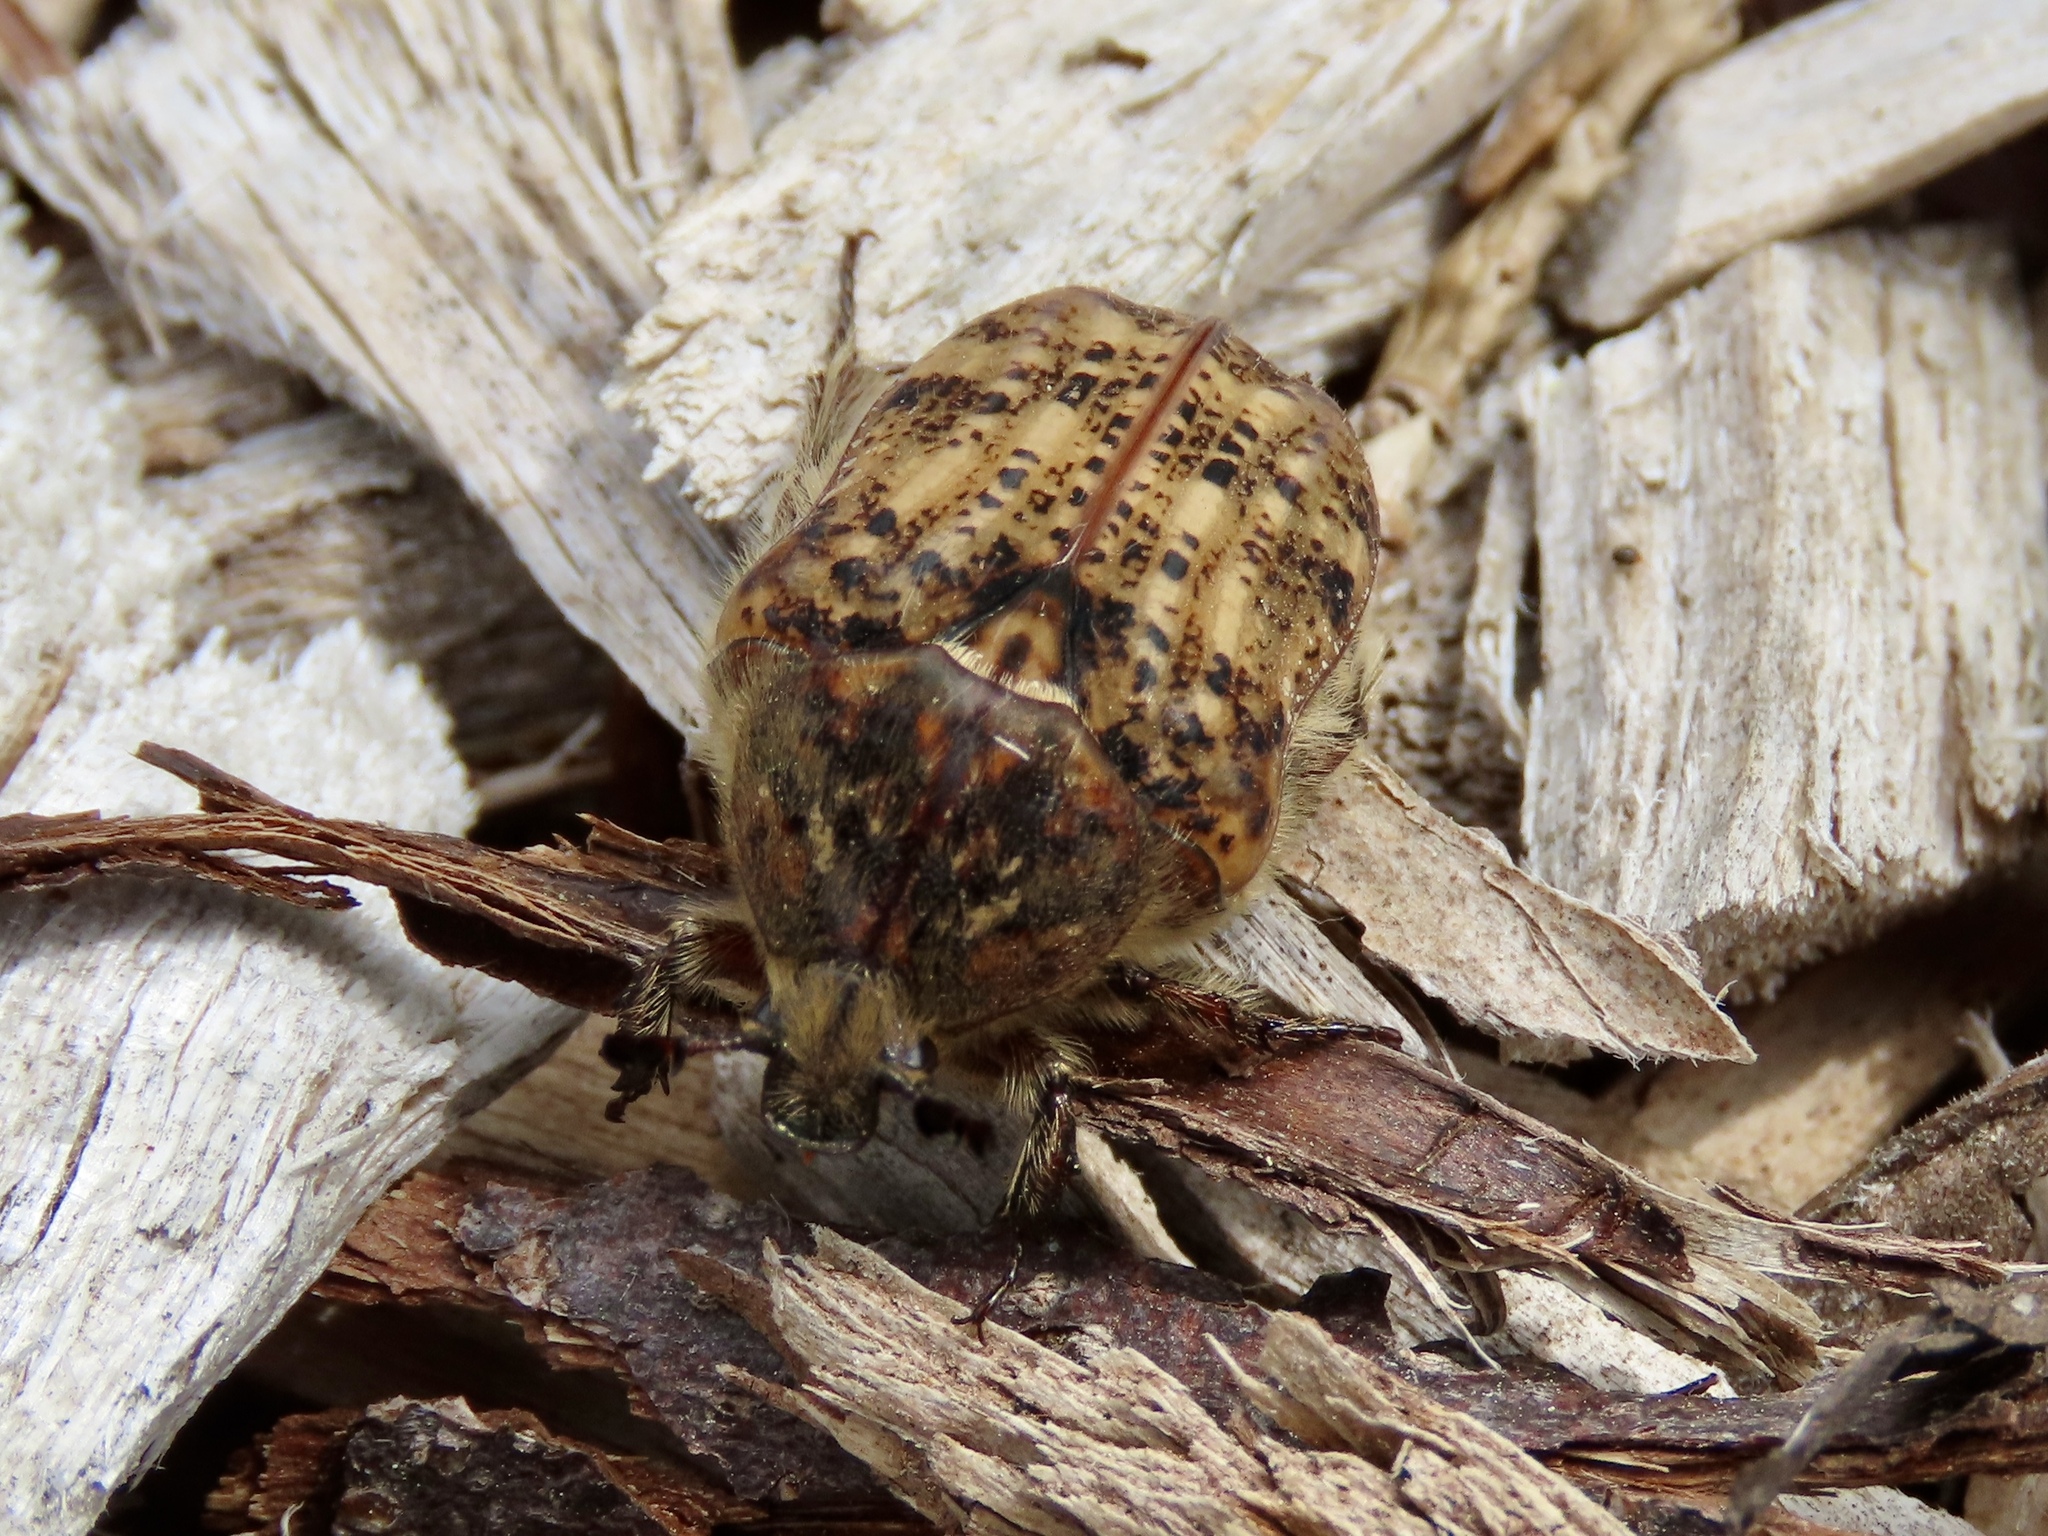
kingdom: Animalia
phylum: Arthropoda
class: Insecta
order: Coleoptera
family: Scarabaeidae
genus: Euphoria
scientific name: Euphoria inda
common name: Bumble flower beetle
